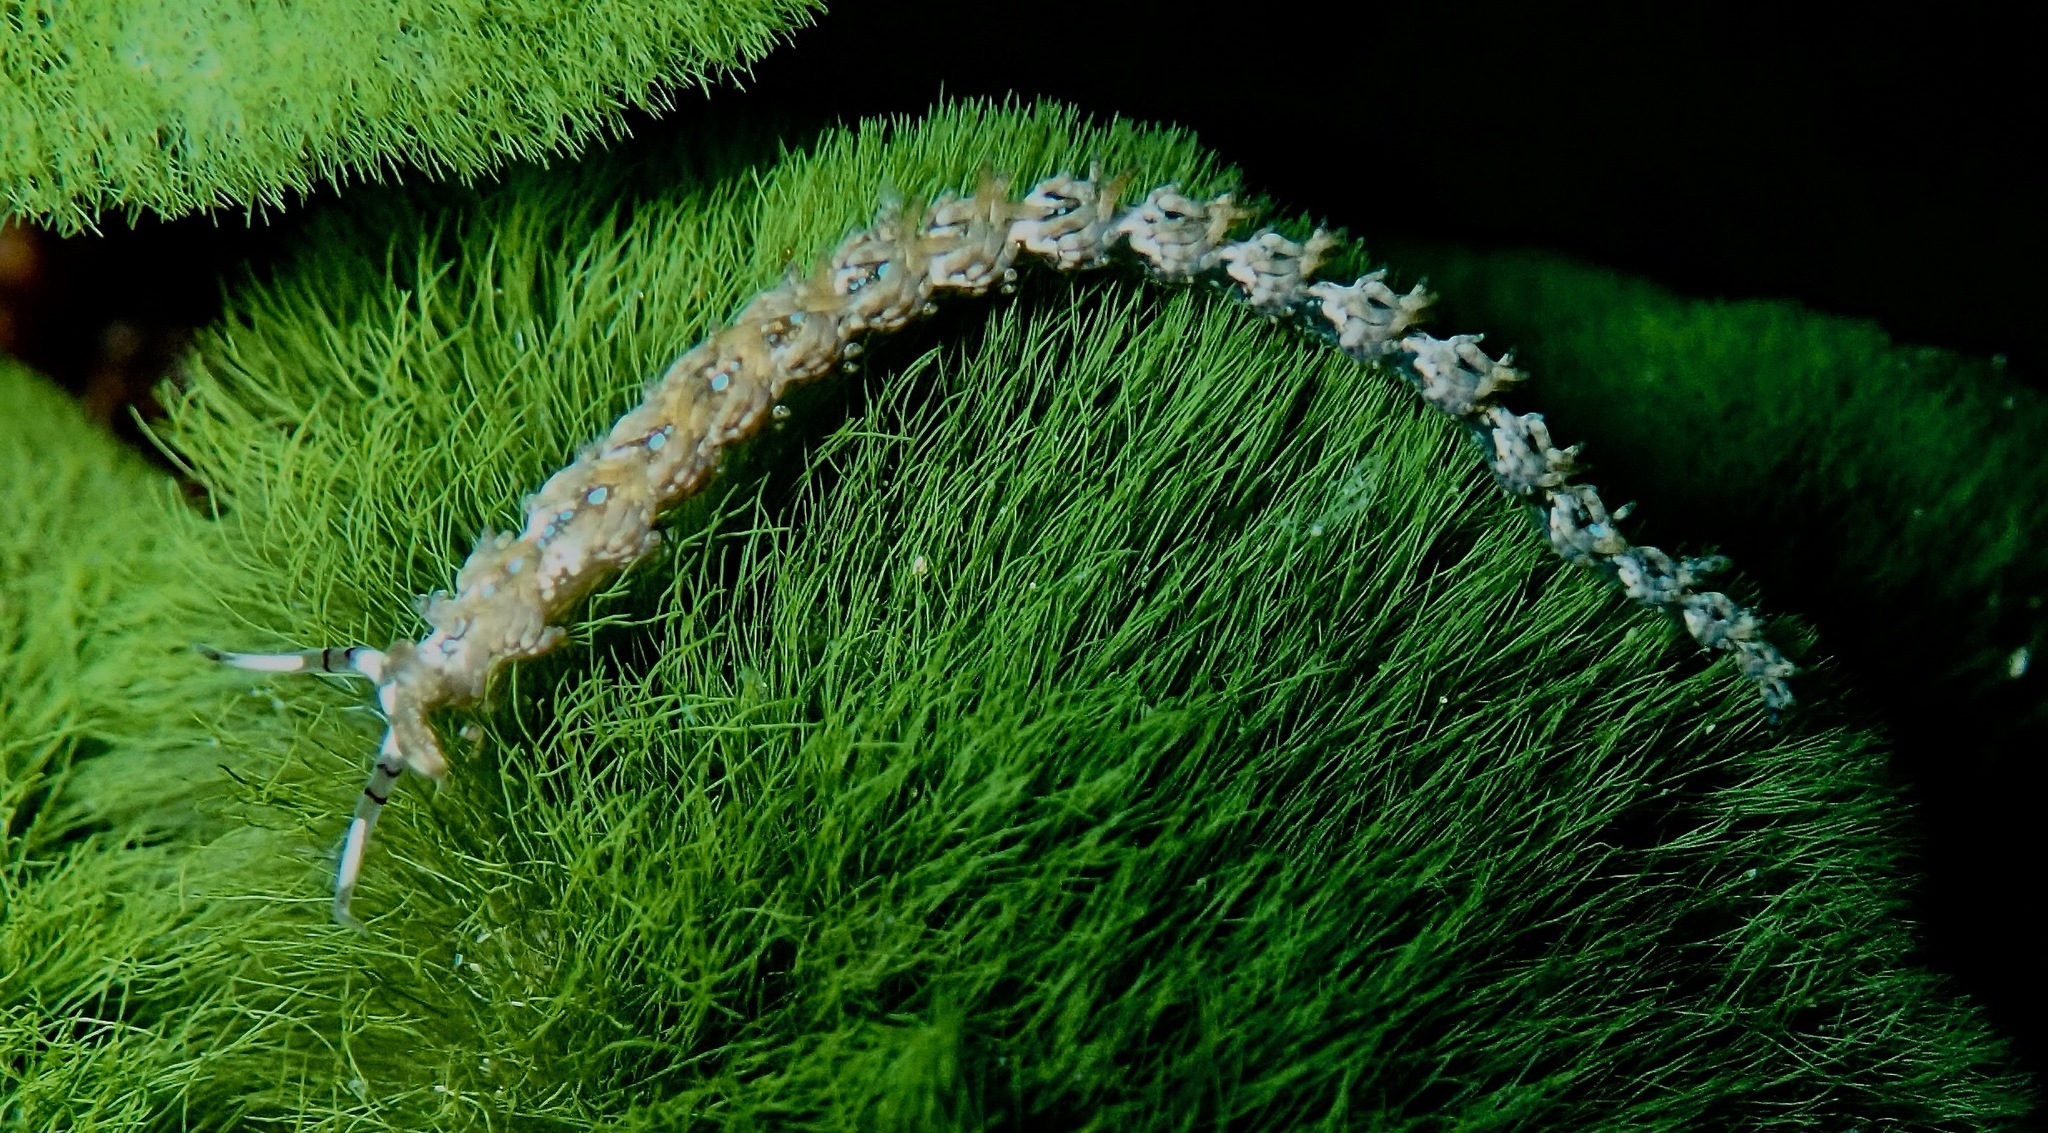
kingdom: Animalia
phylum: Mollusca
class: Gastropoda
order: Nudibranchia
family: Facelinidae
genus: Pteraeolidia
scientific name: Pteraeolidia semperi
